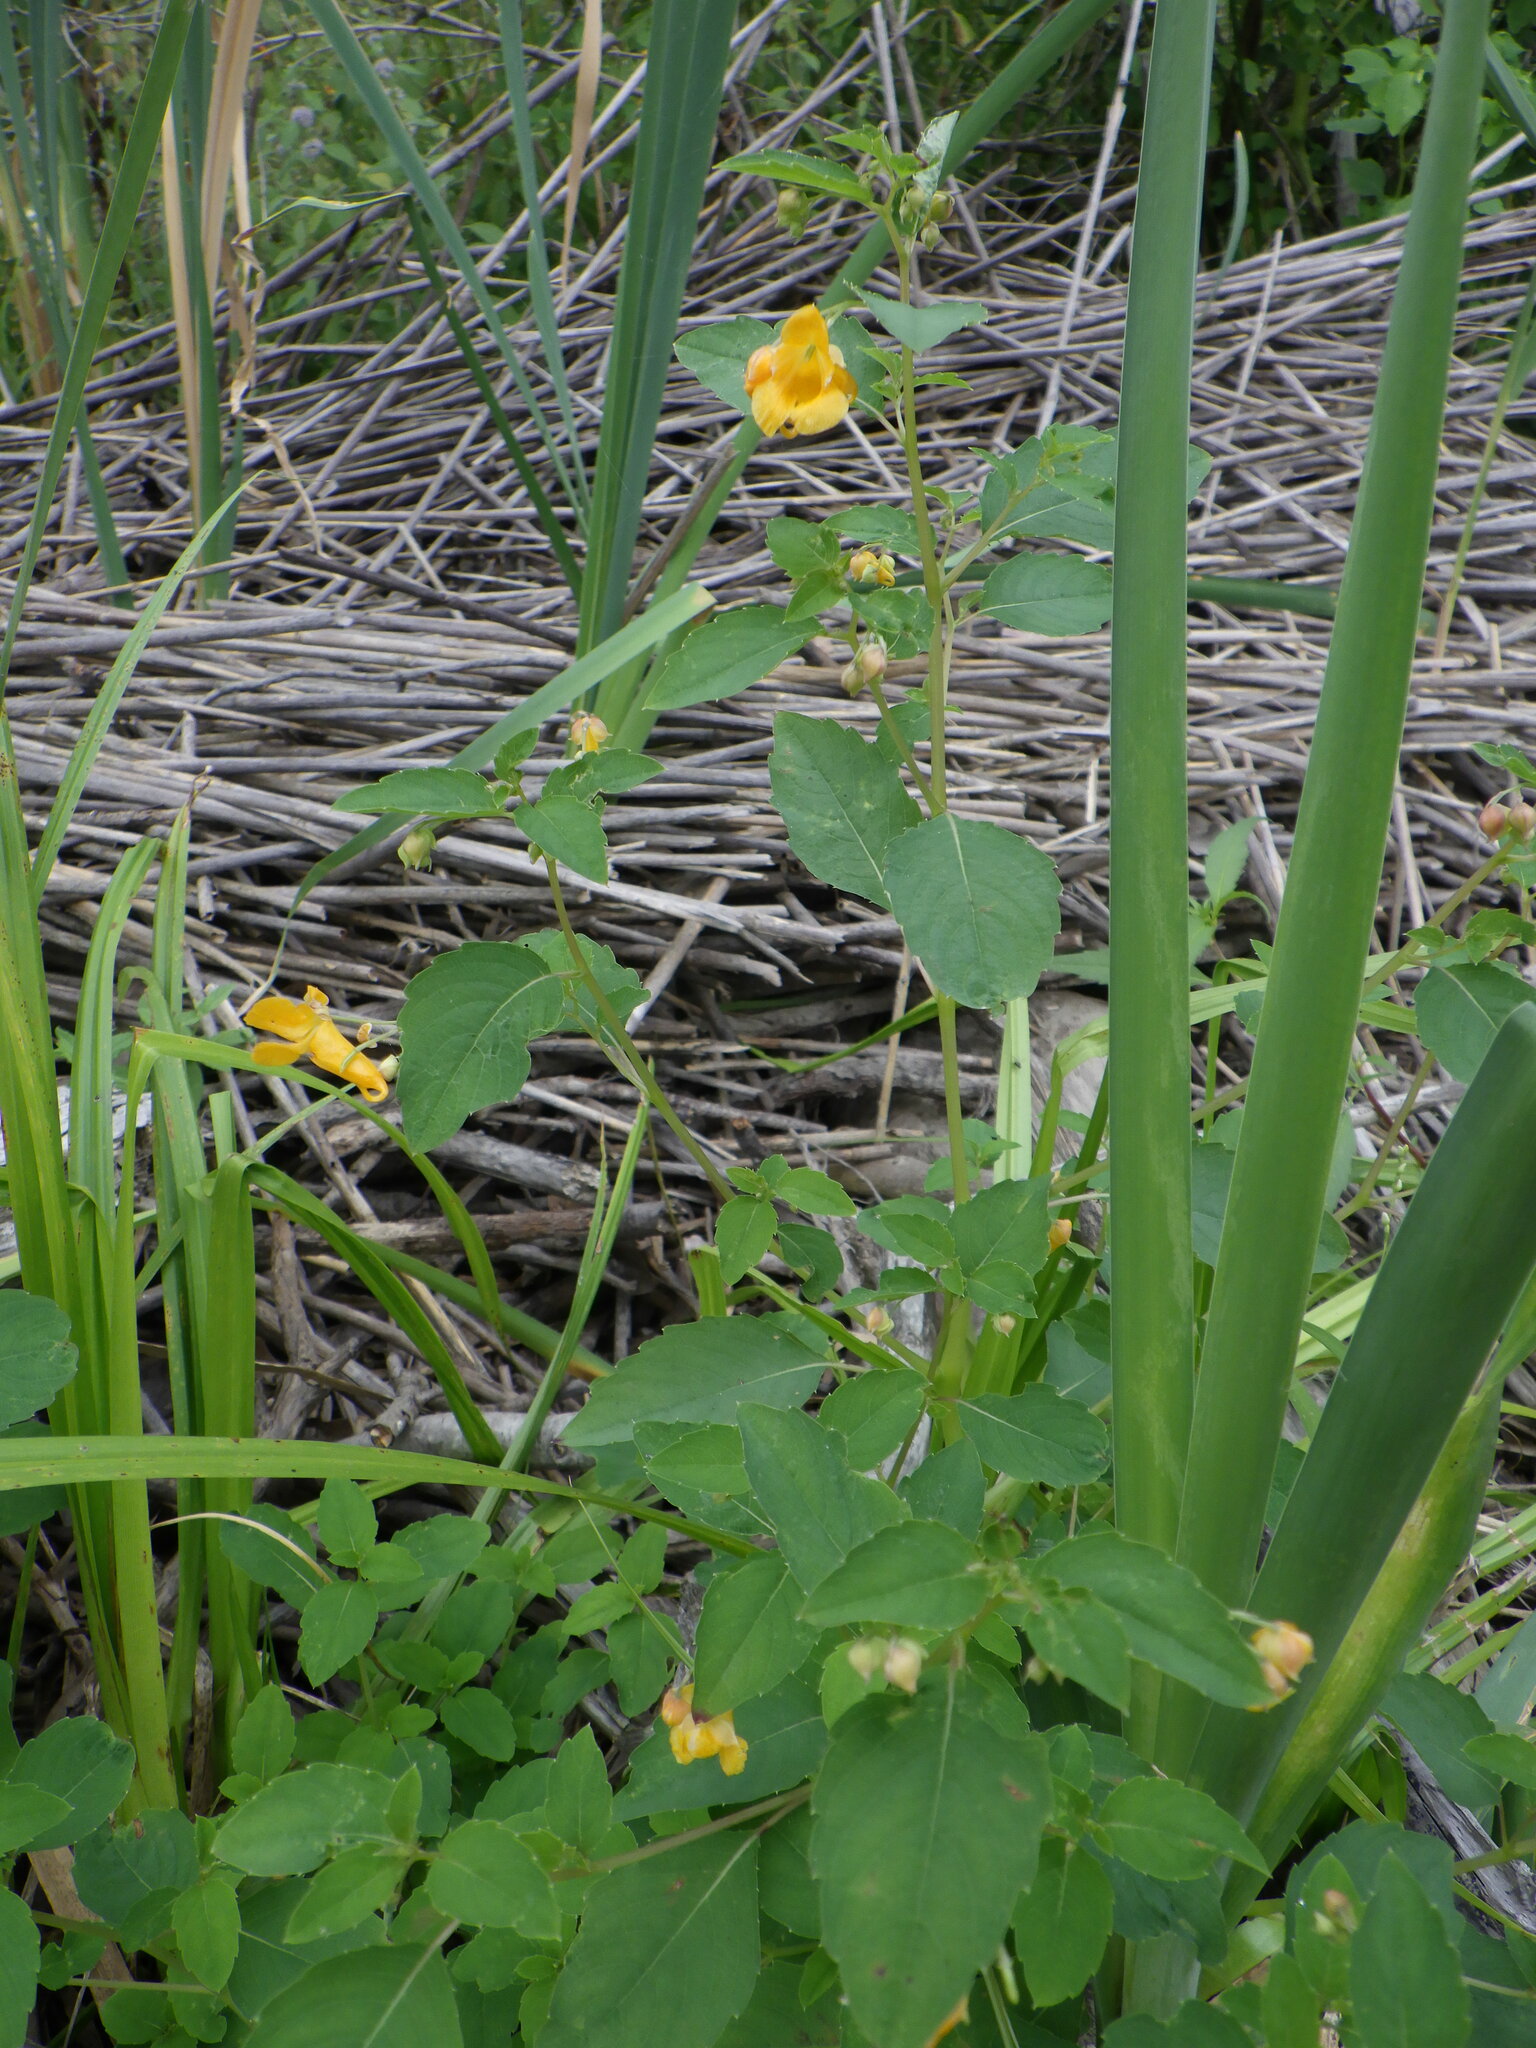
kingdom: Plantae
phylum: Tracheophyta
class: Magnoliopsida
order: Ericales
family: Balsaminaceae
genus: Impatiens
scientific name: Impatiens capensis
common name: Orange balsam
